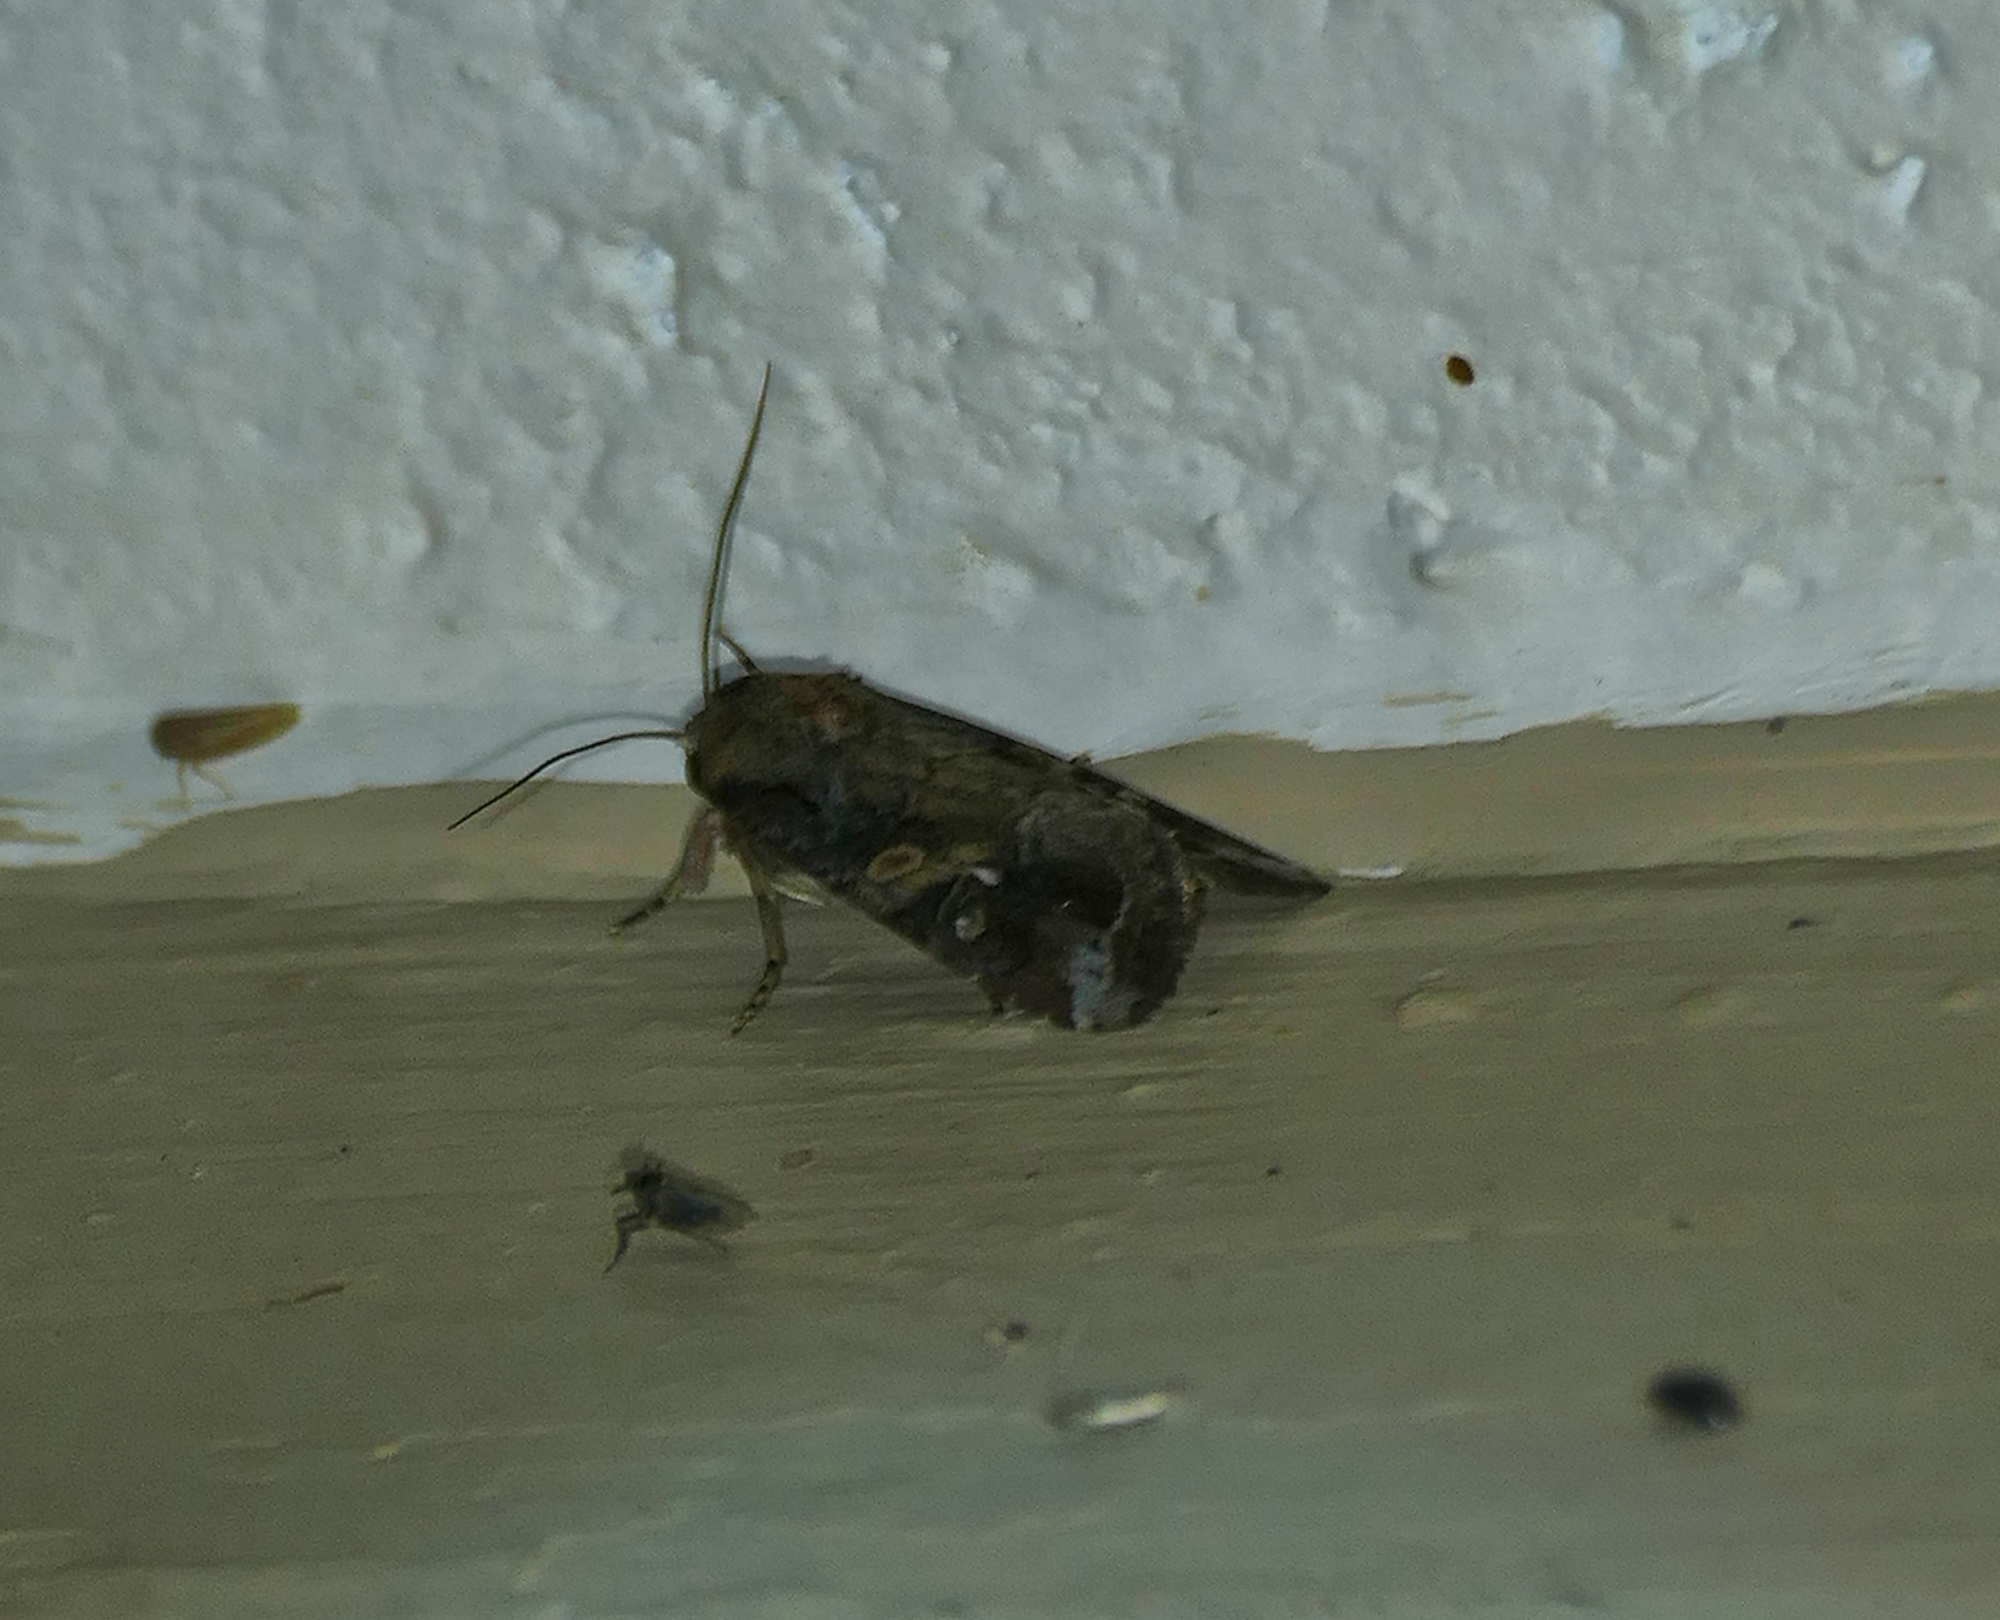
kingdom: Animalia
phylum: Arthropoda
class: Insecta
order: Lepidoptera
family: Noctuidae
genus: Spodoptera
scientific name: Spodoptera frugiperda
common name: Fall armyworm
